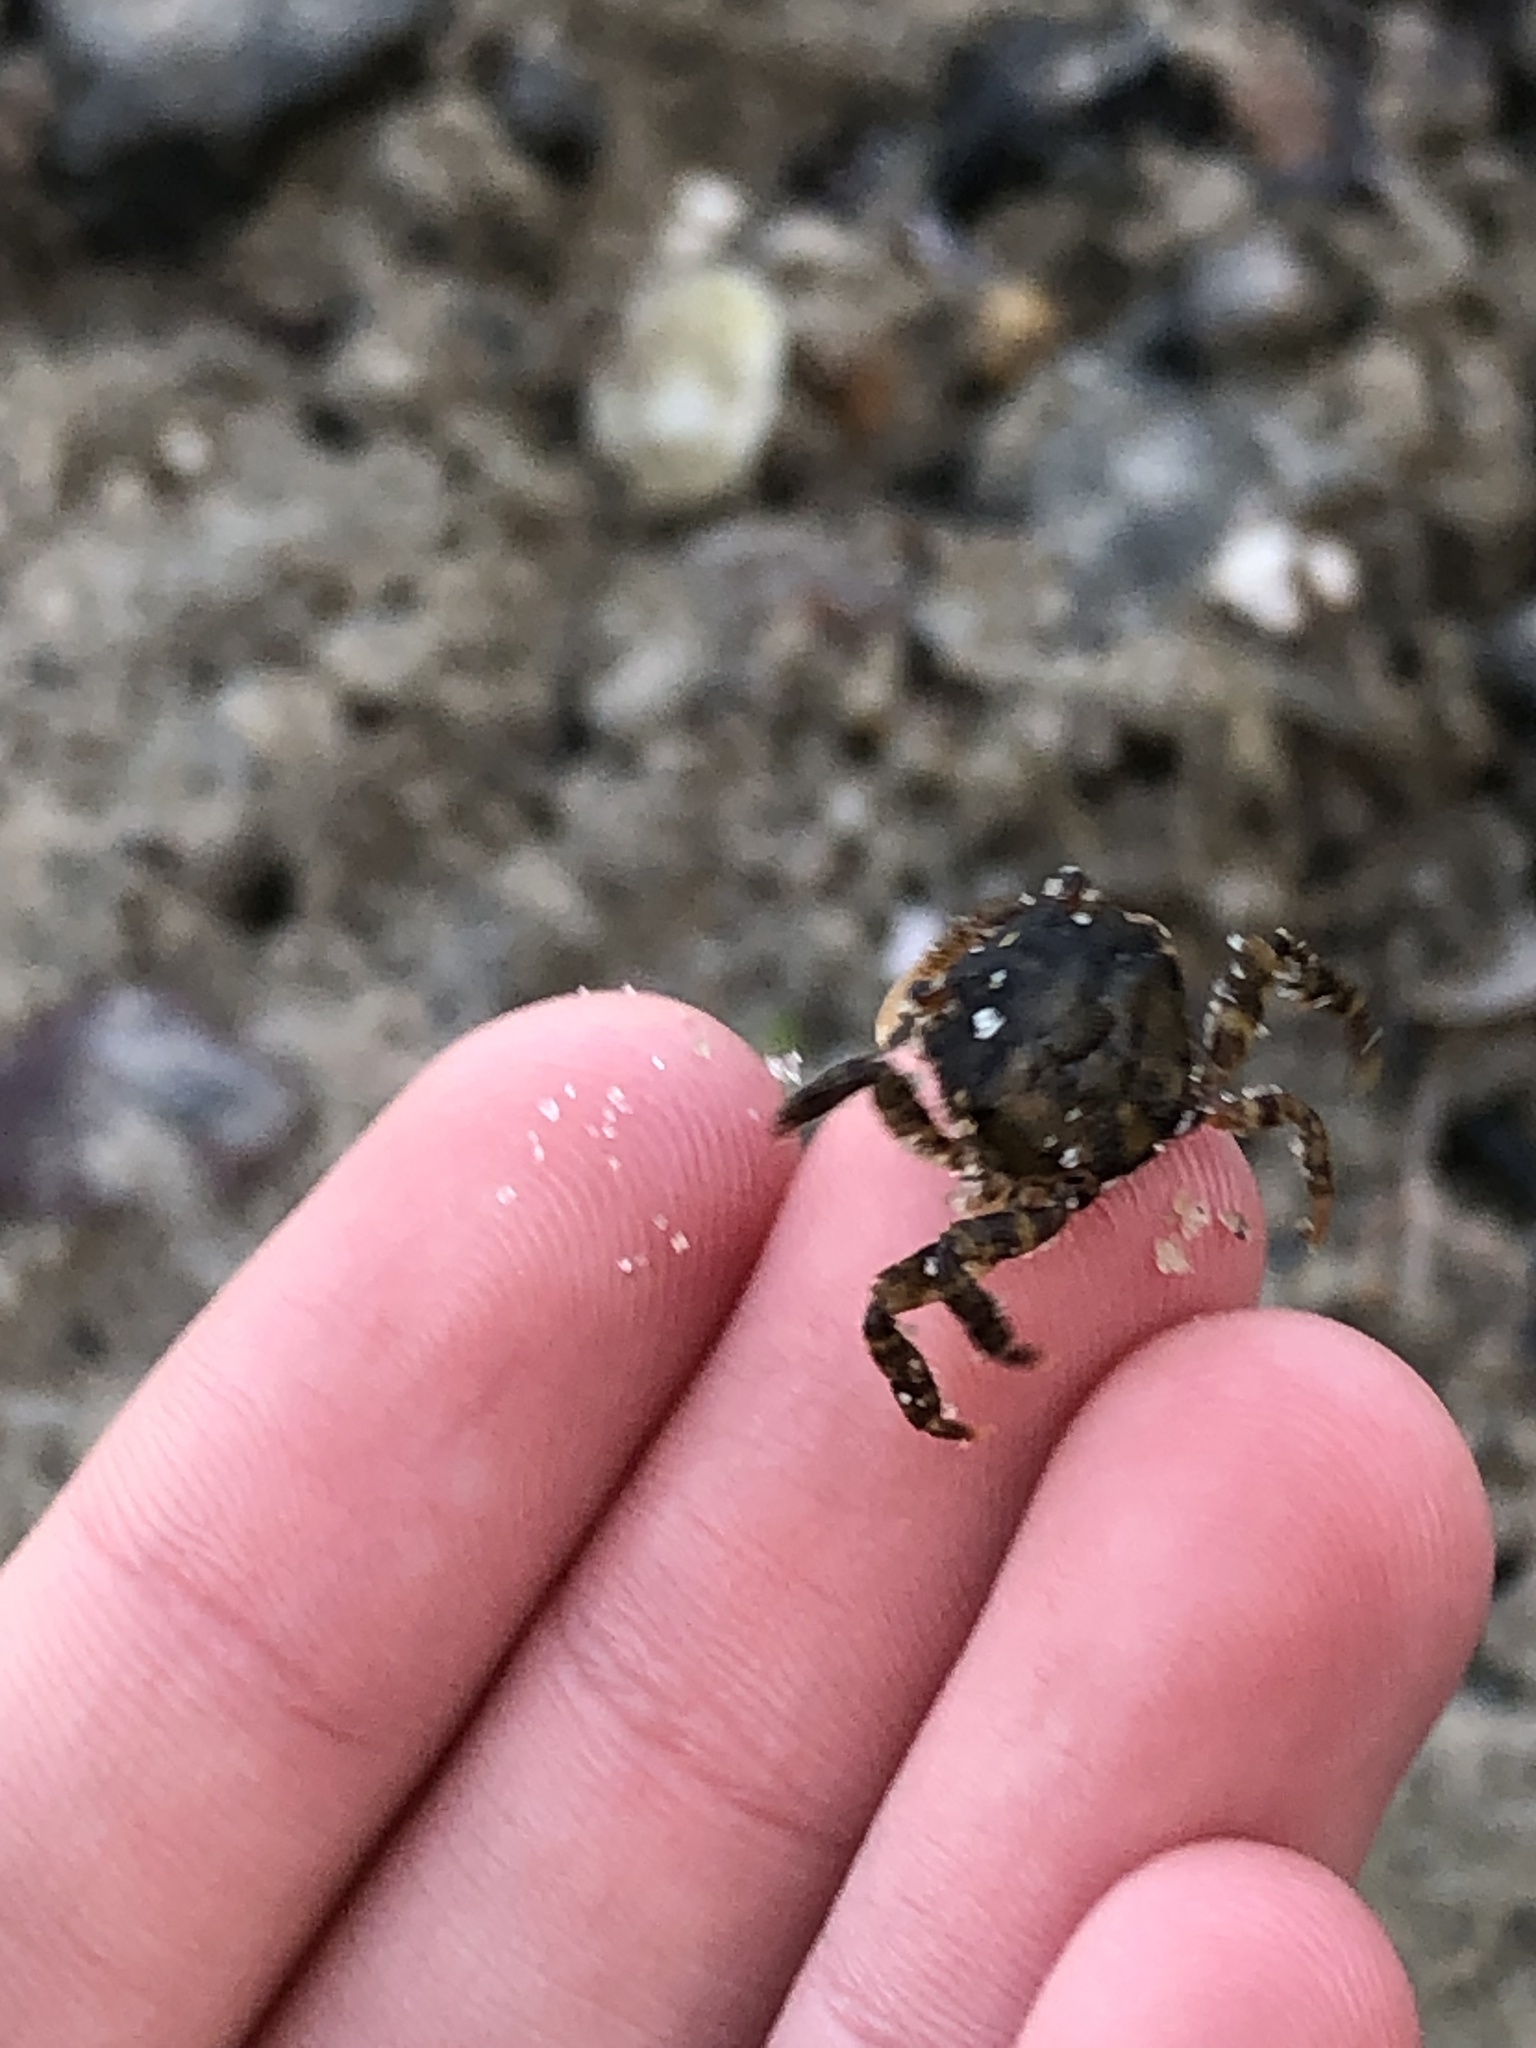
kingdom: Animalia
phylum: Arthropoda
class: Malacostraca
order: Decapoda
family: Varunidae
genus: Hemigrapsus
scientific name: Hemigrapsus sanguineus
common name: Asian shore crab
